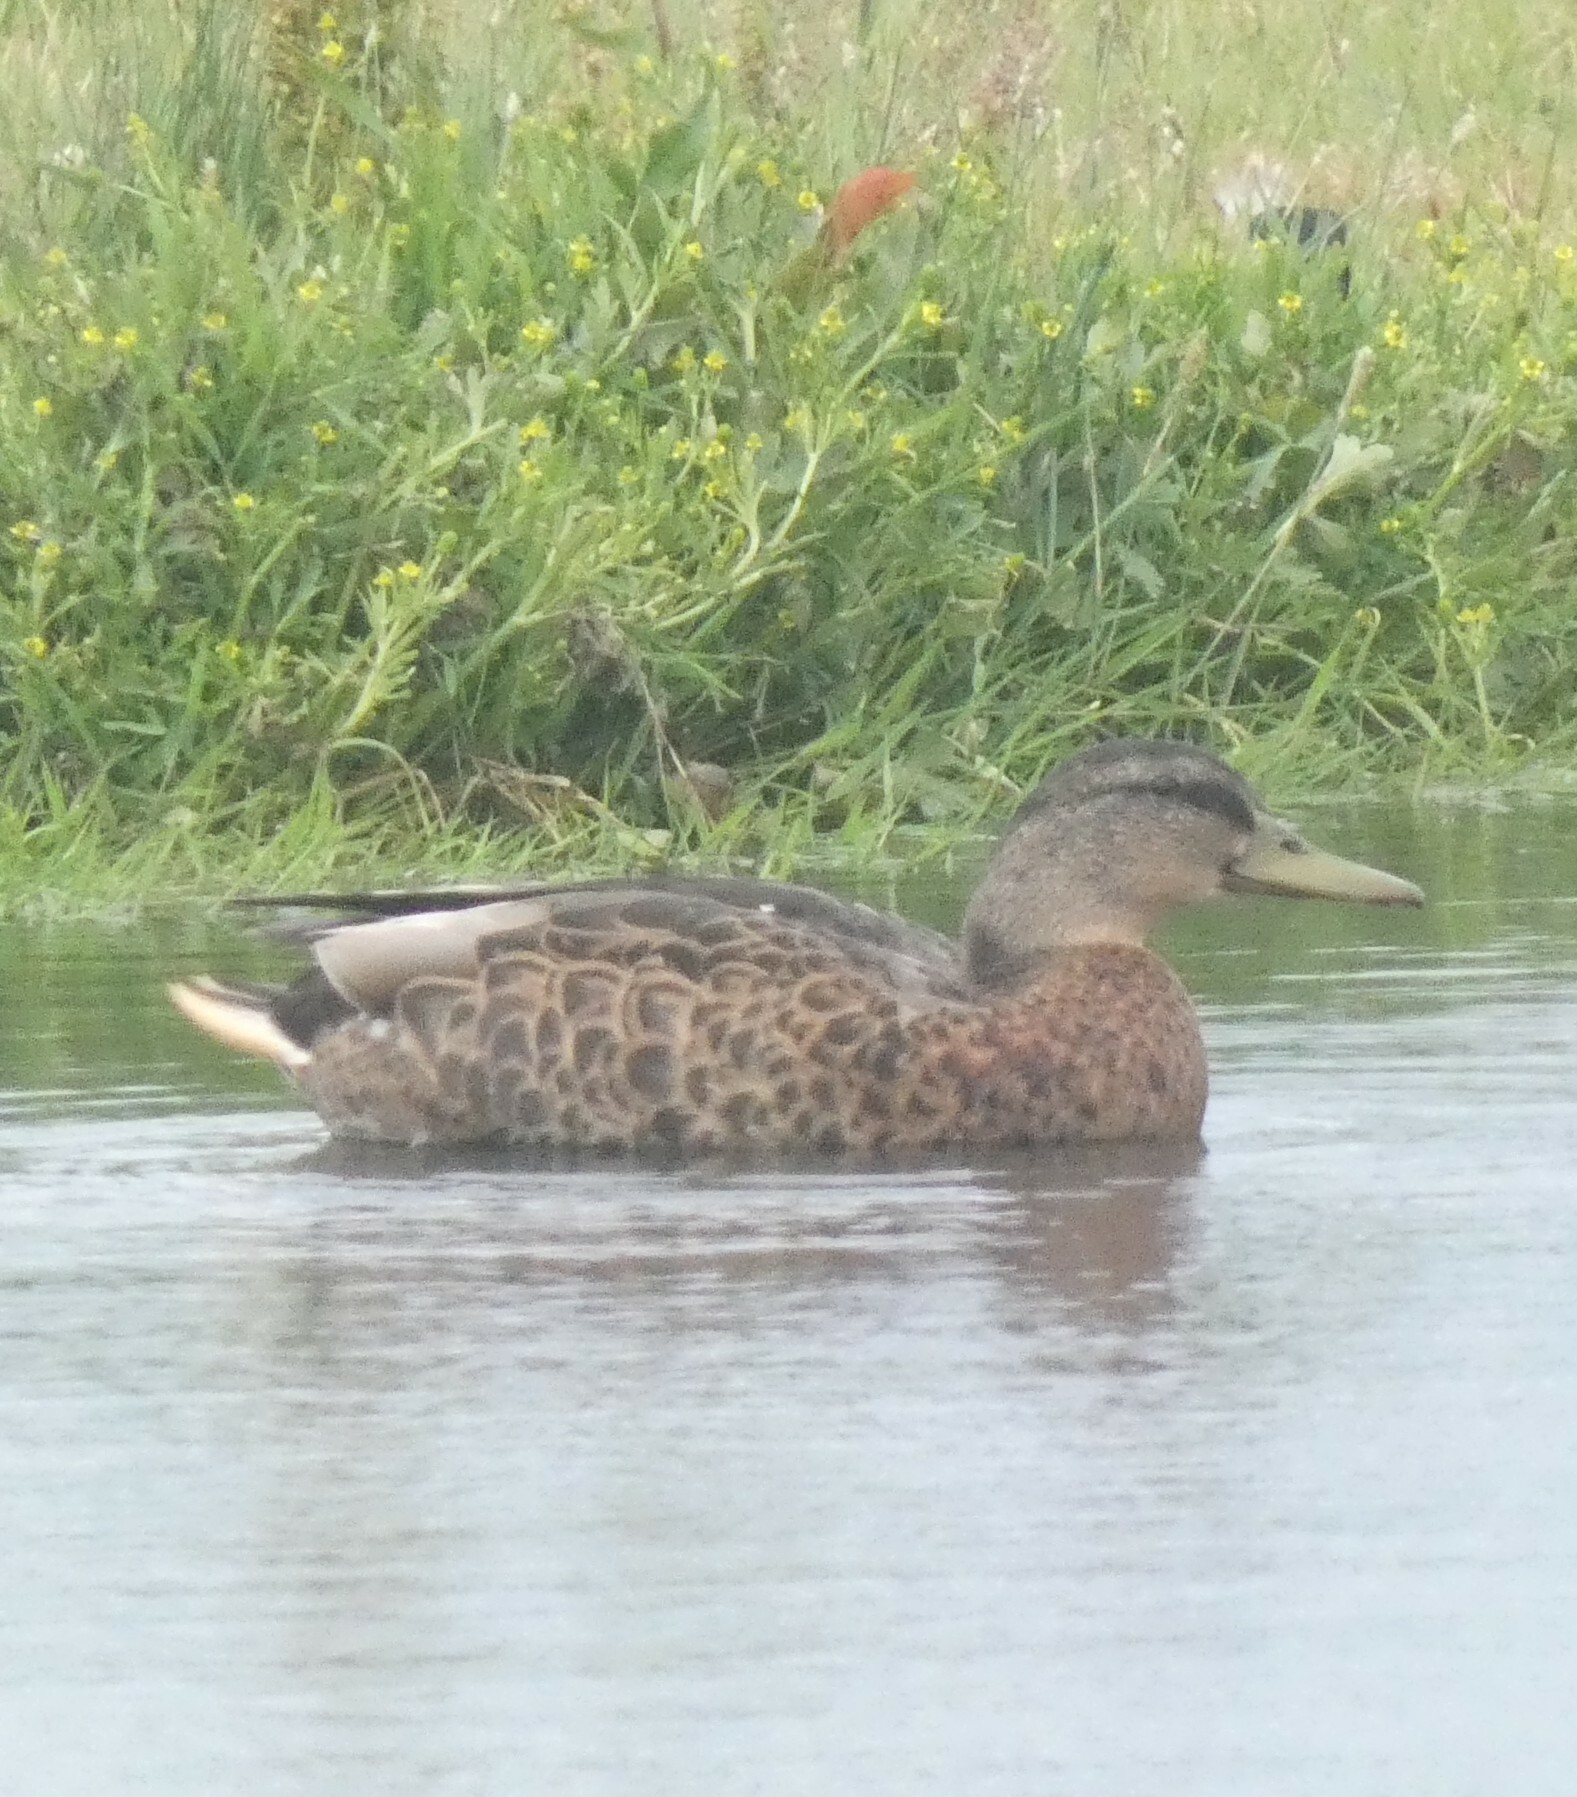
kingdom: Animalia
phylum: Chordata
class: Aves
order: Anseriformes
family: Anatidae
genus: Anas
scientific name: Anas platyrhynchos
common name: Mallard
